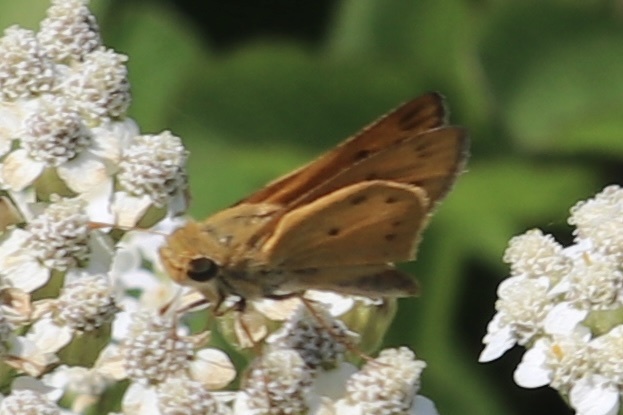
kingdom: Animalia
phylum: Arthropoda
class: Insecta
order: Lepidoptera
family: Hesperiidae
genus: Hylephila
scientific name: Hylephila phyleus
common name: Fiery skipper
